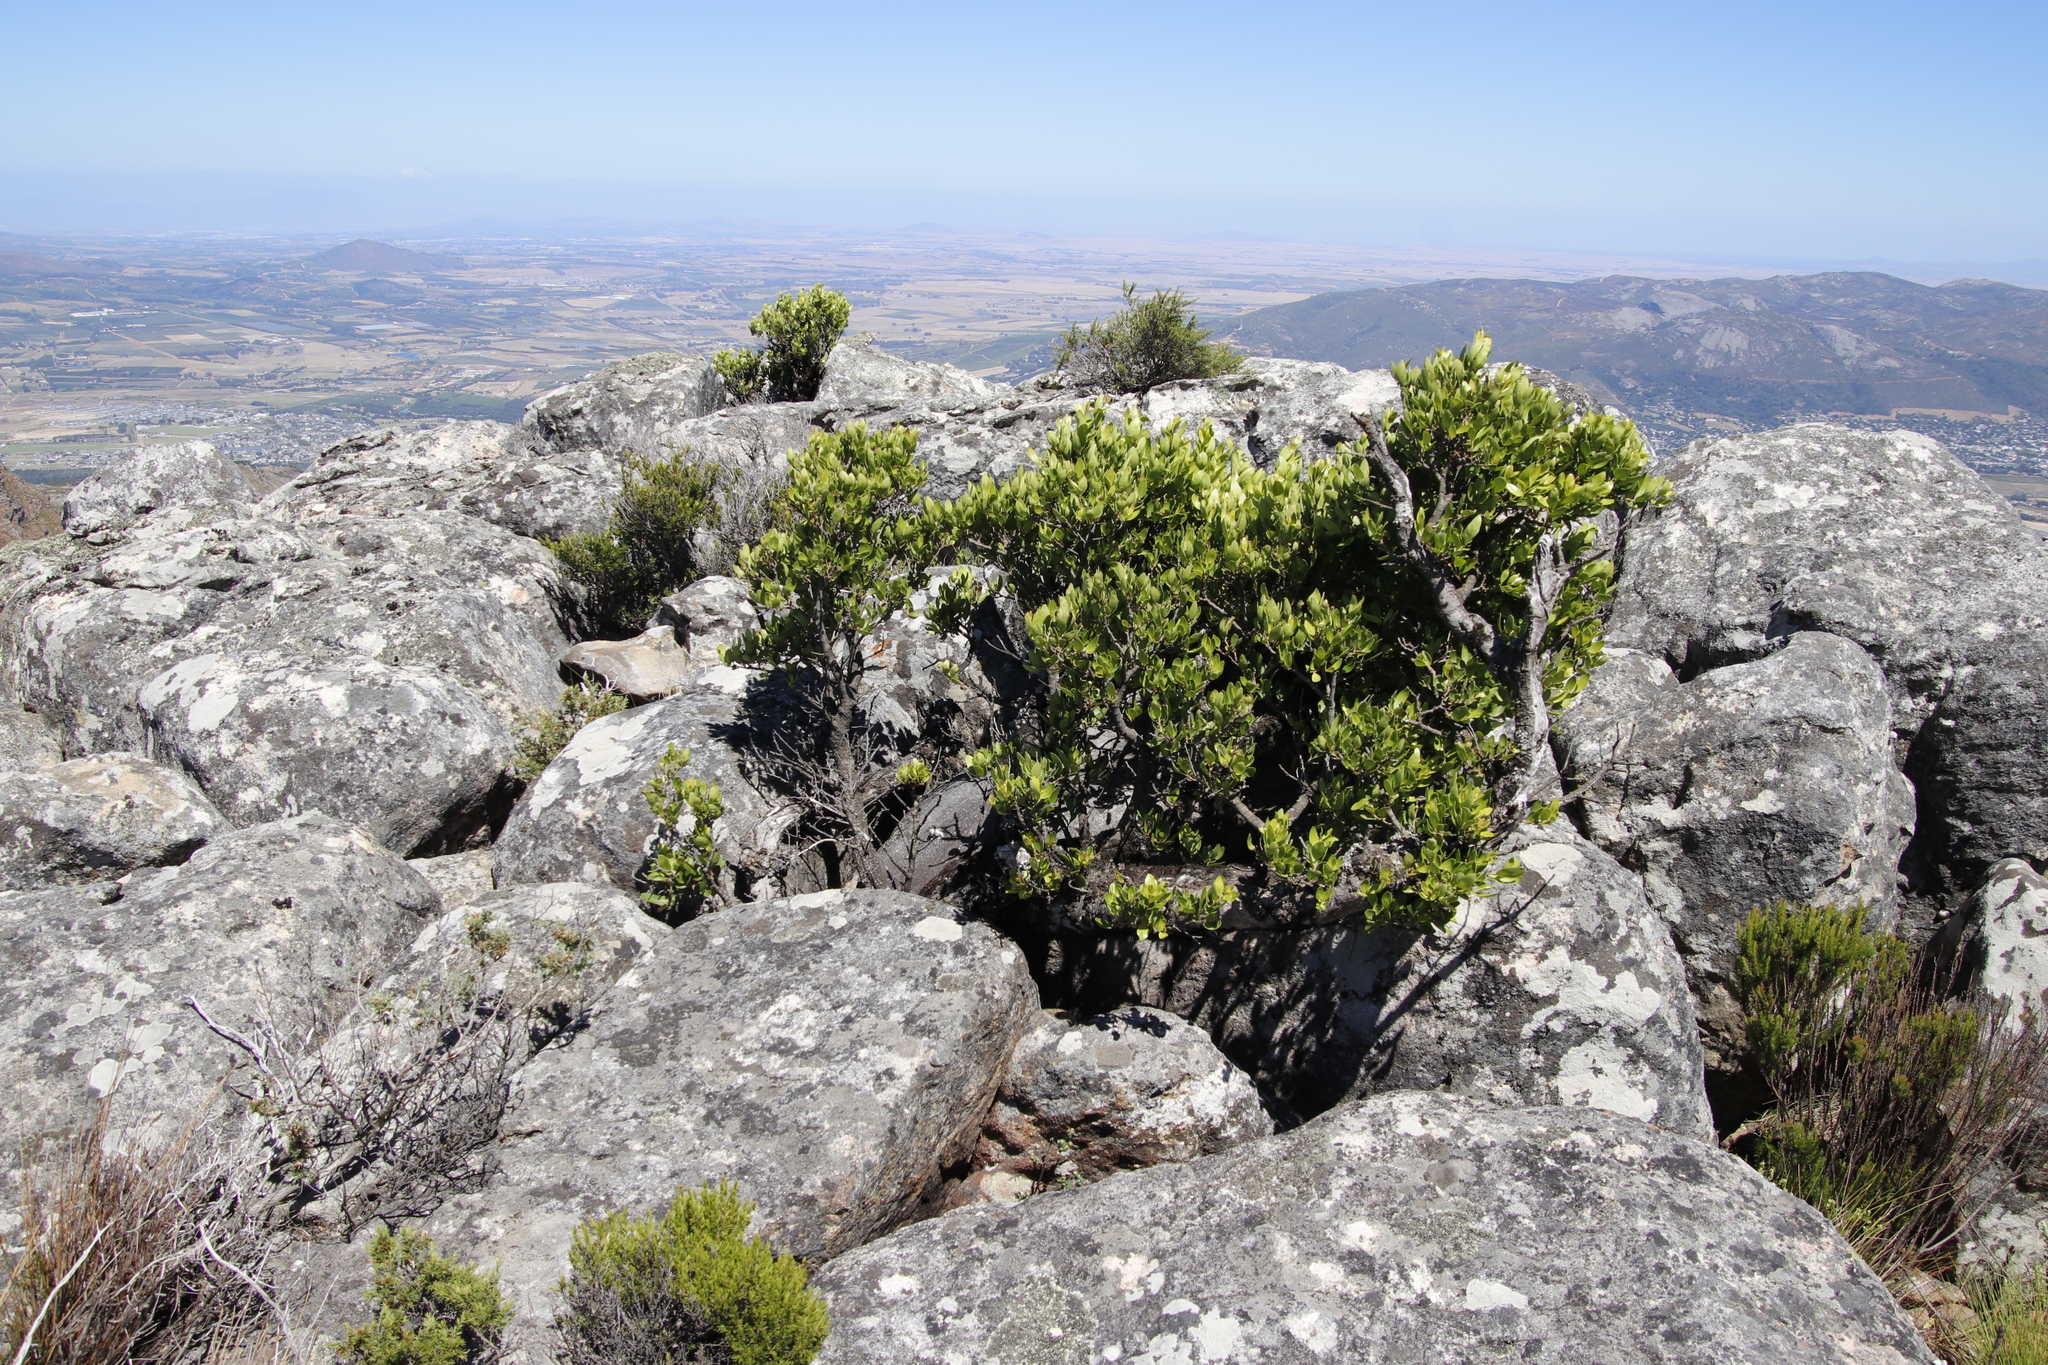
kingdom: Plantae
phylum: Tracheophyta
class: Magnoliopsida
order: Celastrales
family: Celastraceae
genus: Gymnosporia
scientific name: Gymnosporia laurina
